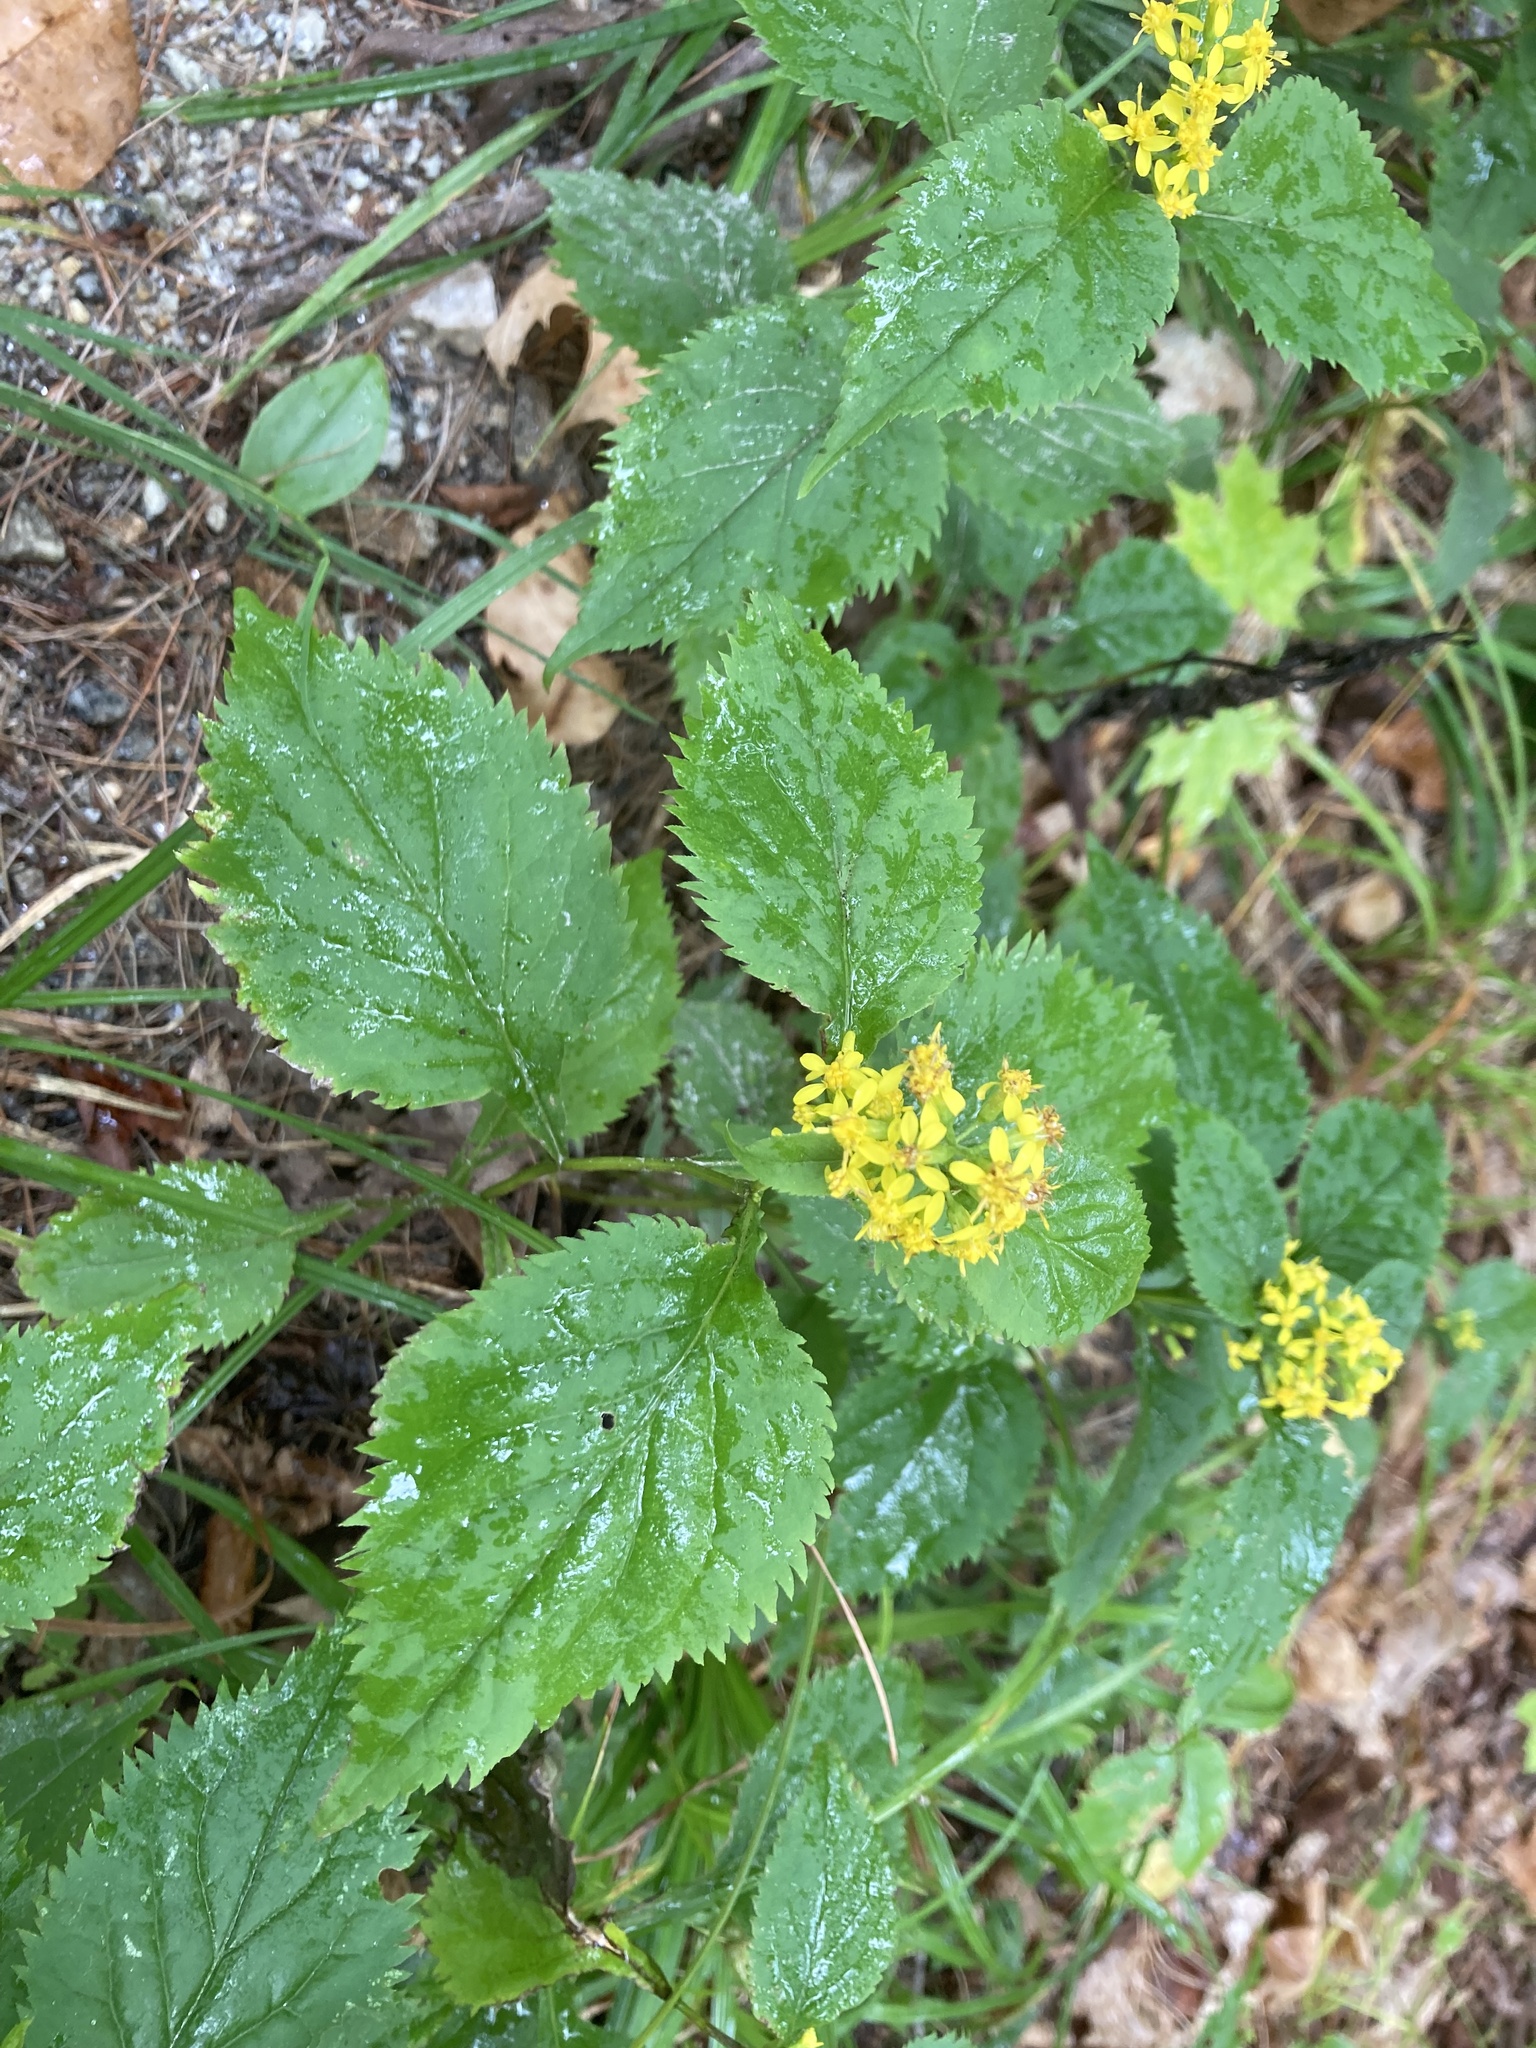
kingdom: Plantae
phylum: Tracheophyta
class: Magnoliopsida
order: Asterales
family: Asteraceae
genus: Solidago
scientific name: Solidago flexicaulis
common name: Zig-zag goldenrod
